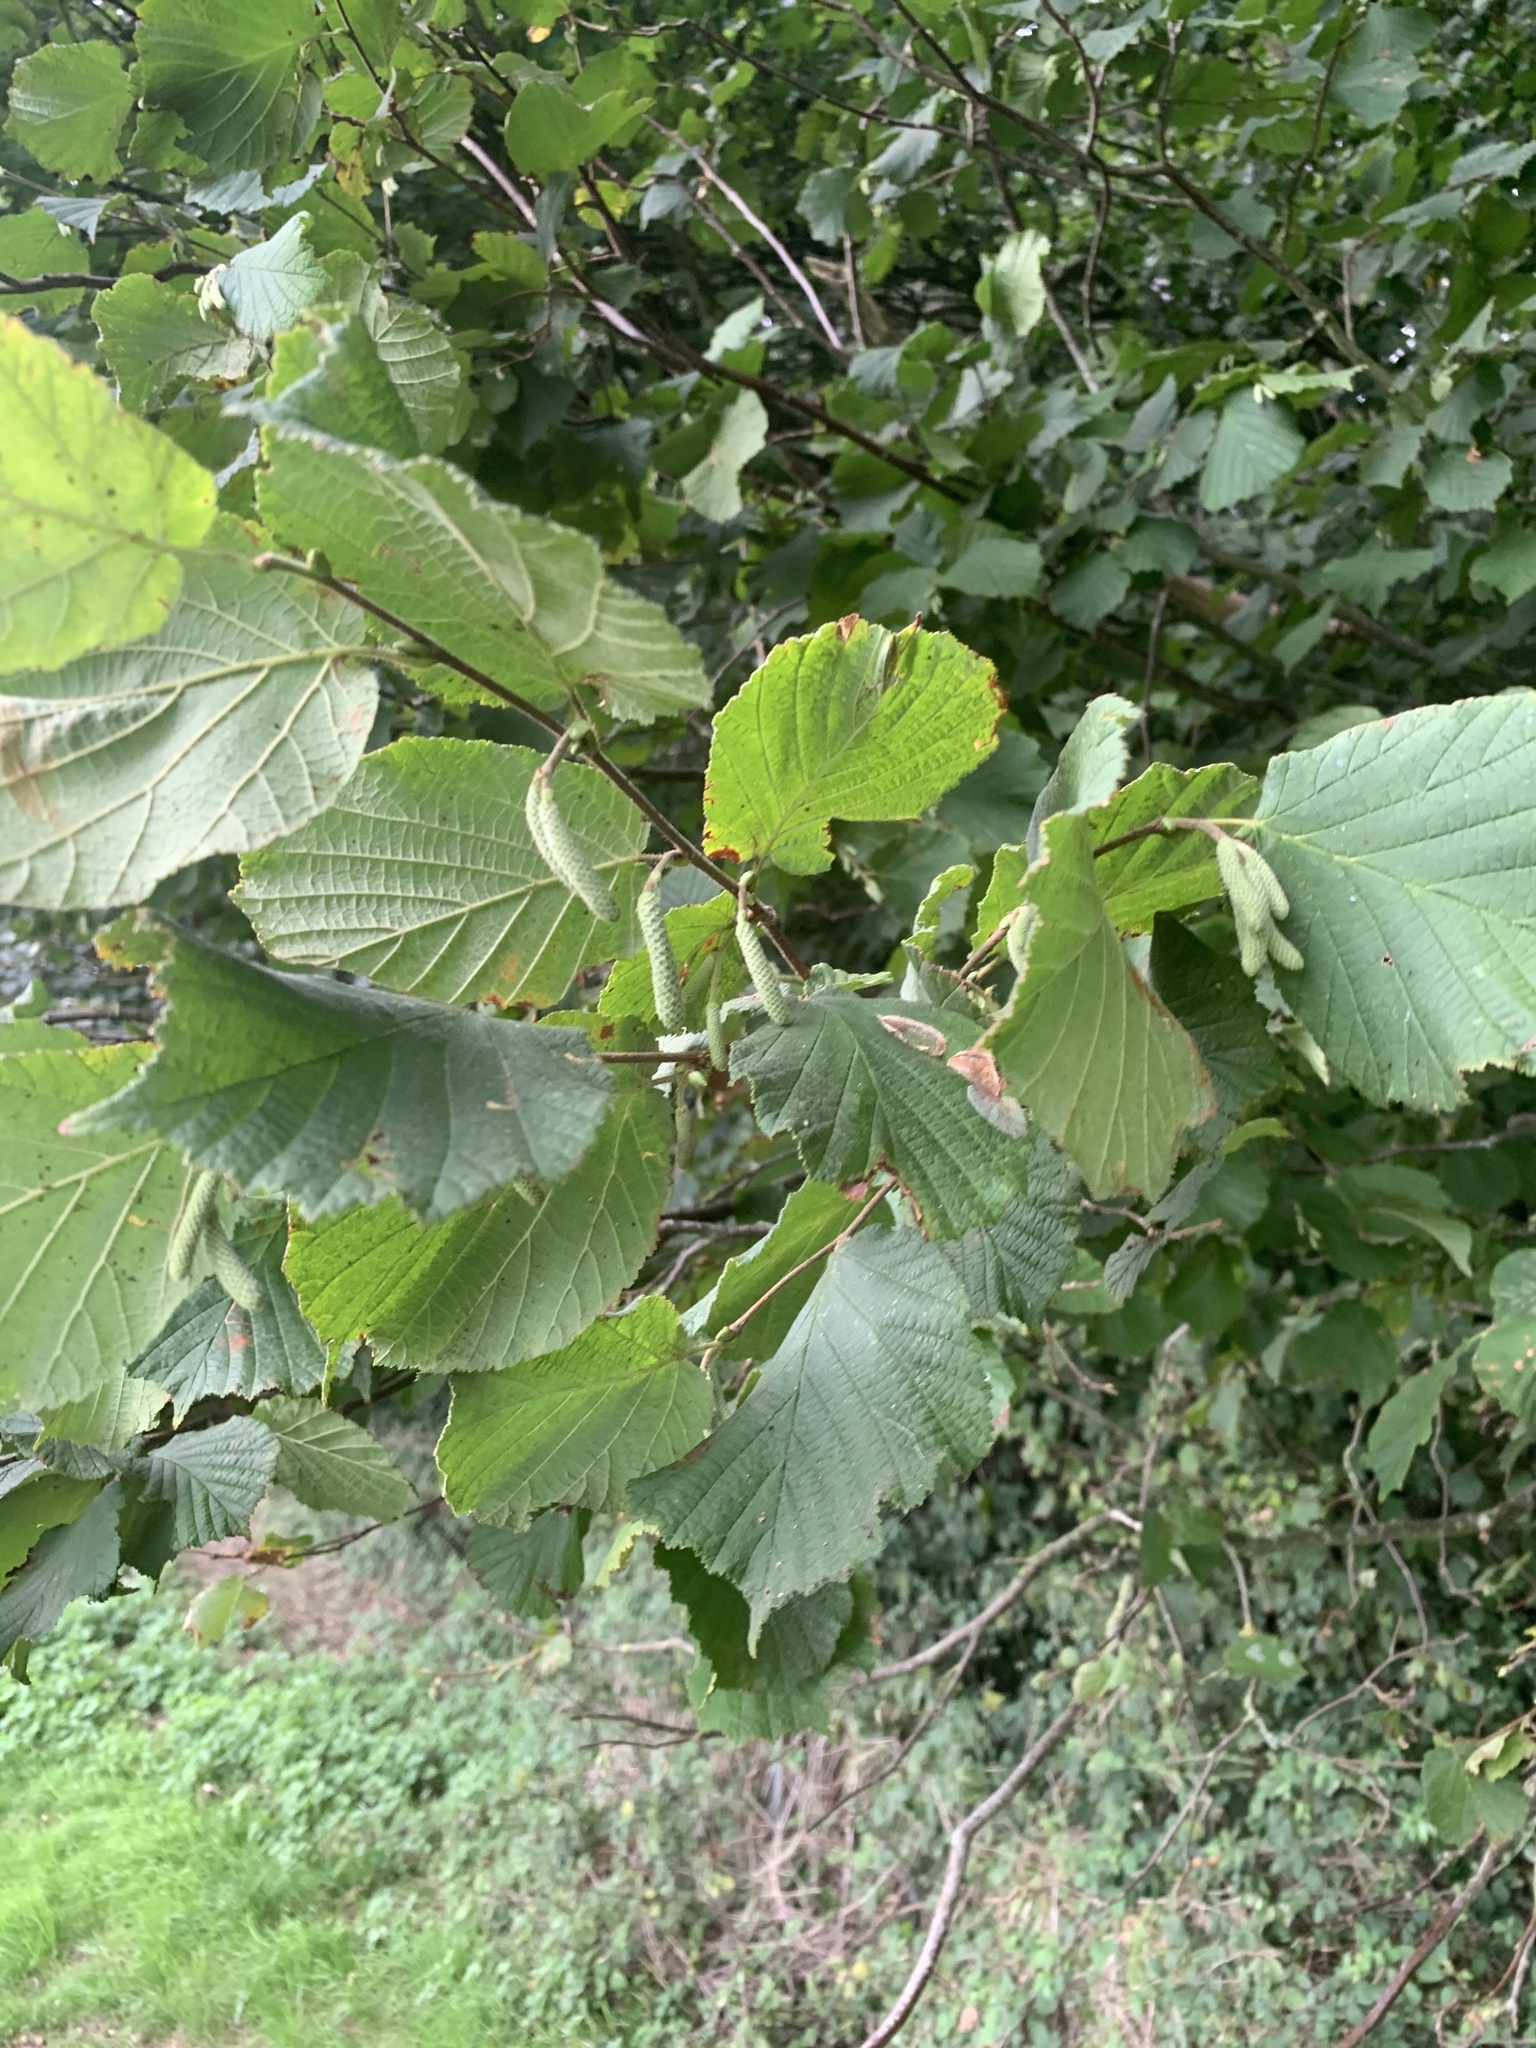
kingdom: Plantae
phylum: Tracheophyta
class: Magnoliopsida
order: Fagales
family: Betulaceae
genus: Corylus
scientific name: Corylus avellana
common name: European hazel
